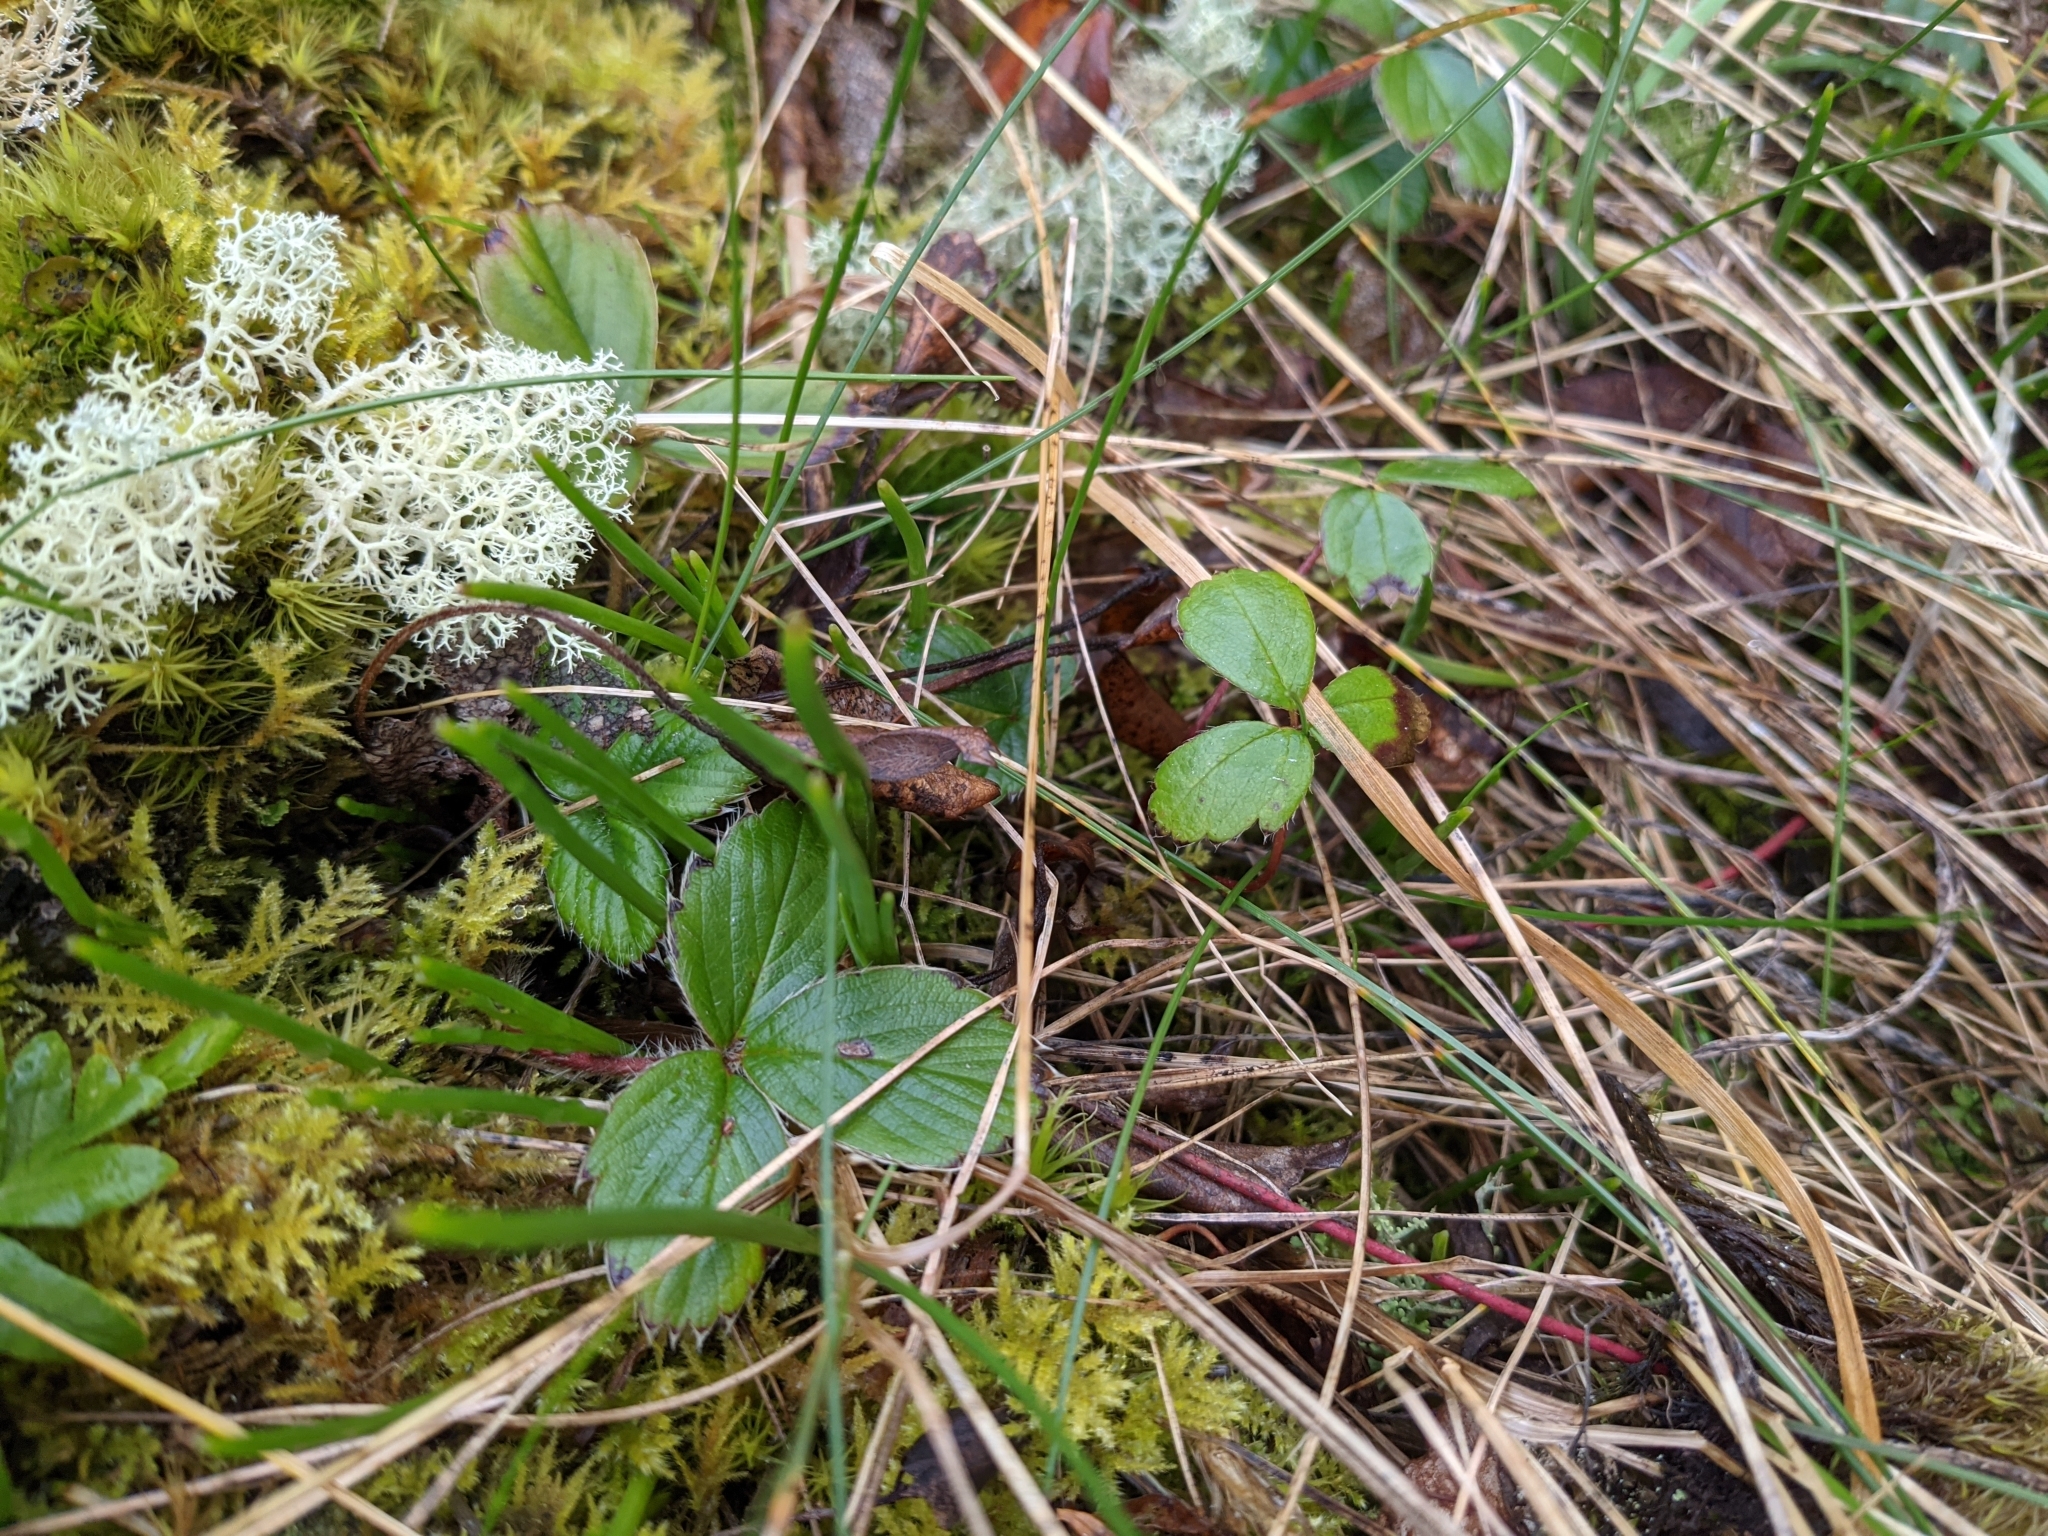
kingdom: Plantae
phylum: Tracheophyta
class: Magnoliopsida
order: Rosales
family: Rosaceae
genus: Fragaria
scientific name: Fragaria chiloensis
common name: Beach strawberry
